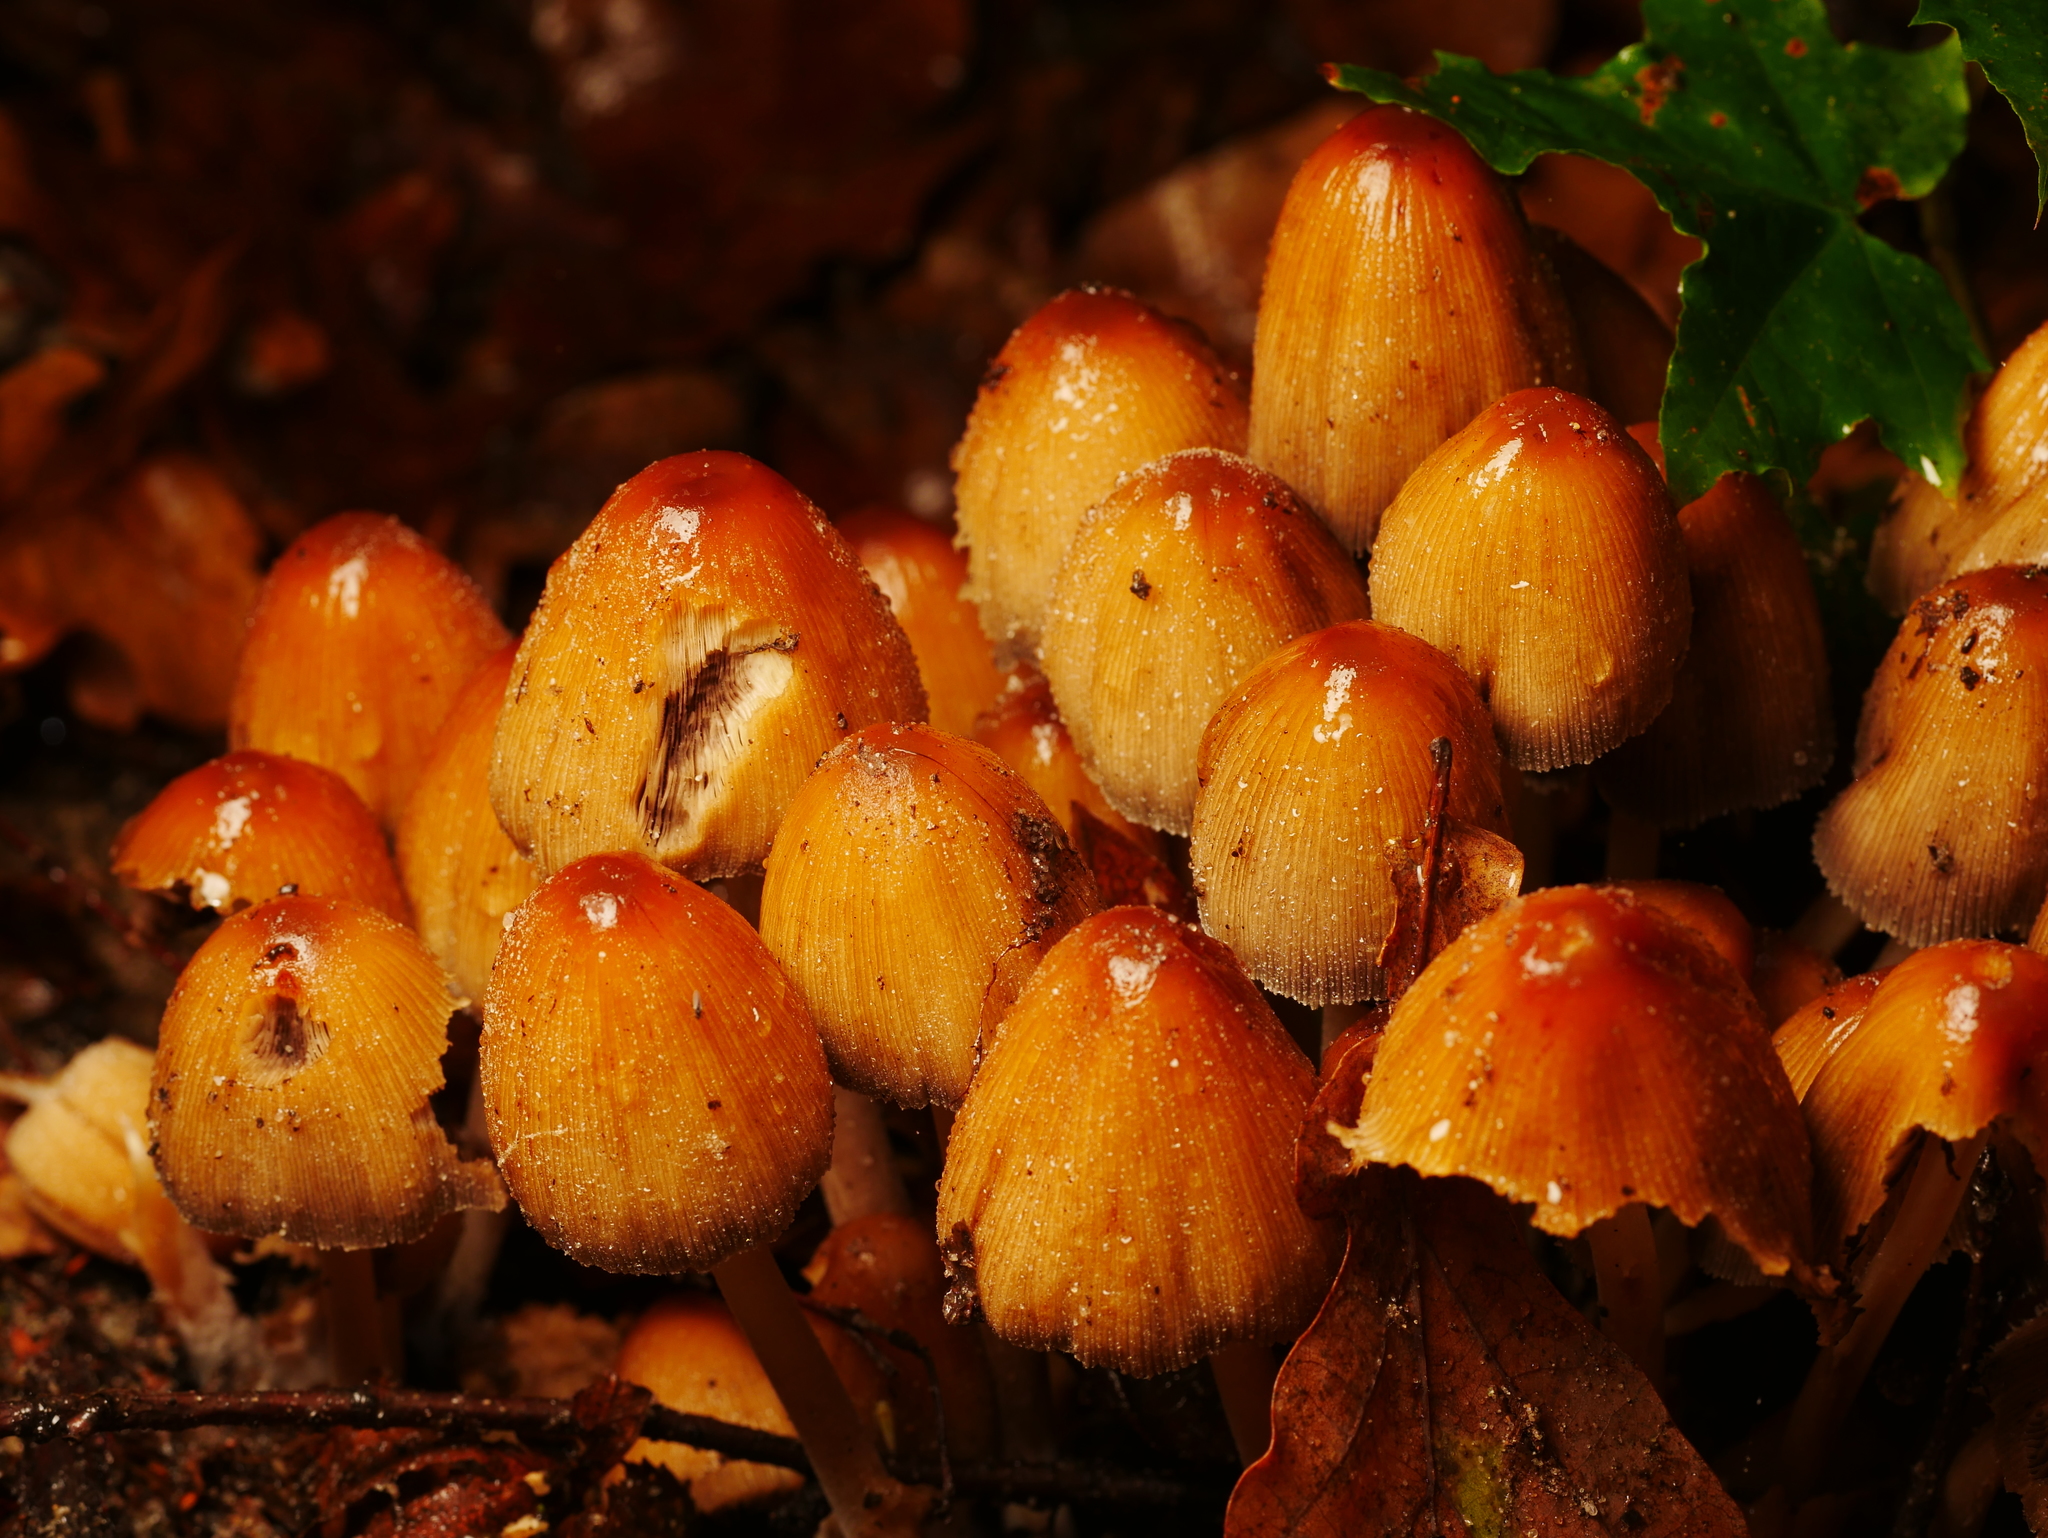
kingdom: Fungi
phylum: Basidiomycota
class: Agaricomycetes
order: Agaricales
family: Psathyrellaceae
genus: Coprinellus
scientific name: Coprinellus micaceus
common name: Glistening ink-cap
